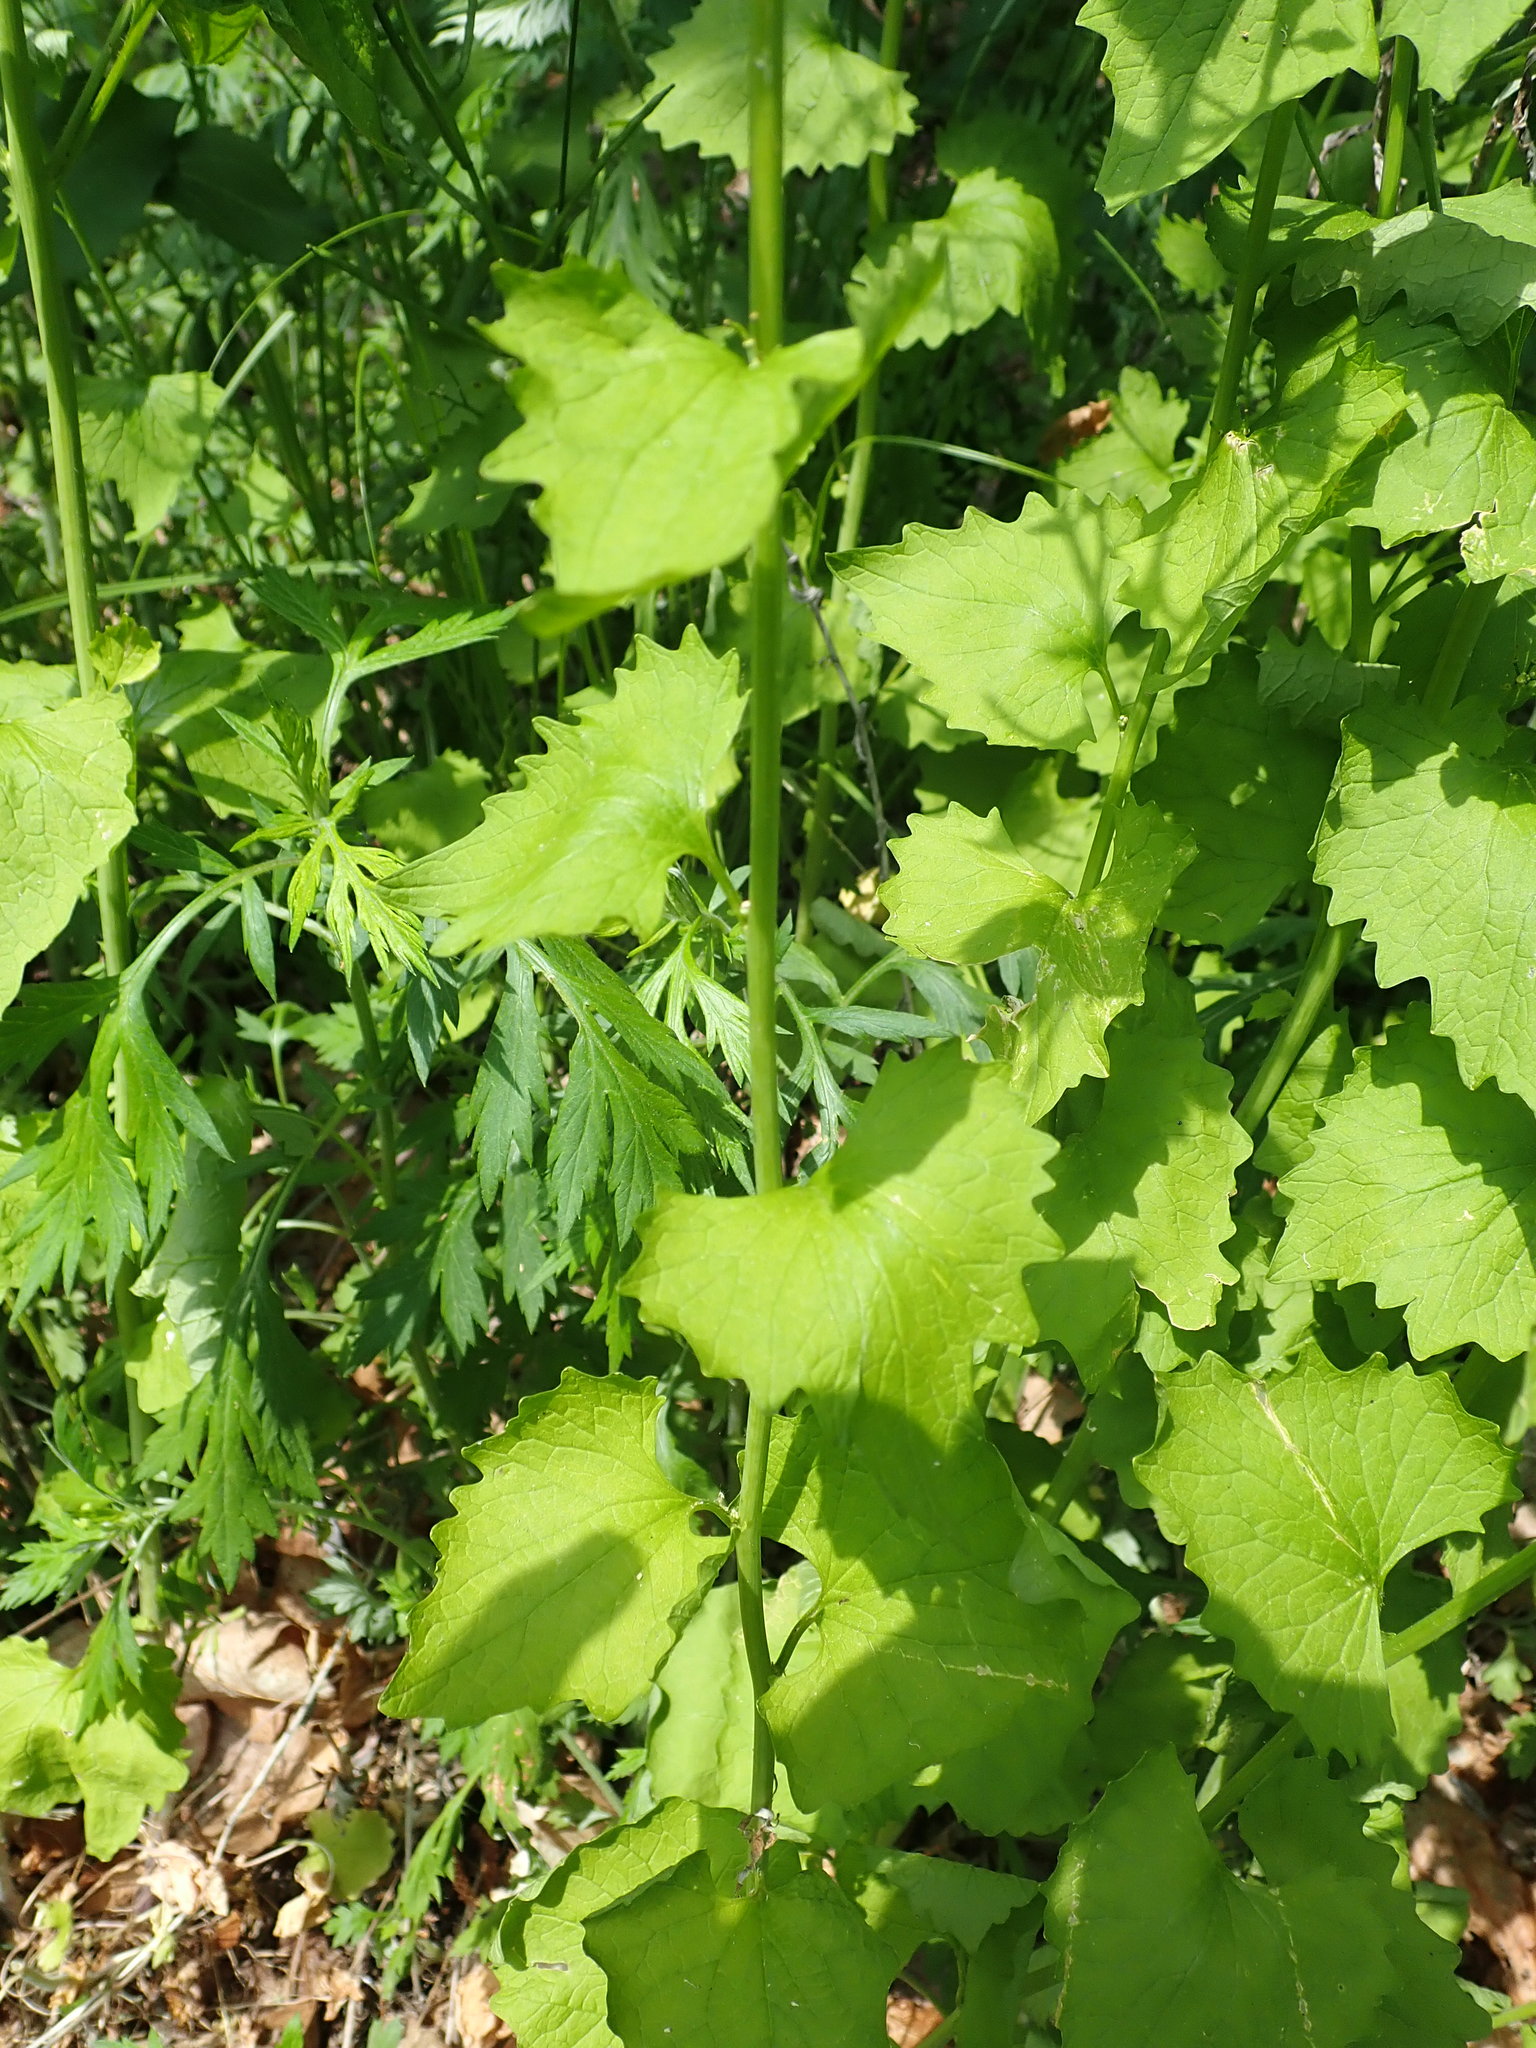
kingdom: Plantae
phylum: Tracheophyta
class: Magnoliopsida
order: Brassicales
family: Brassicaceae
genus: Alliaria
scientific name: Alliaria petiolata
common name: Garlic mustard
